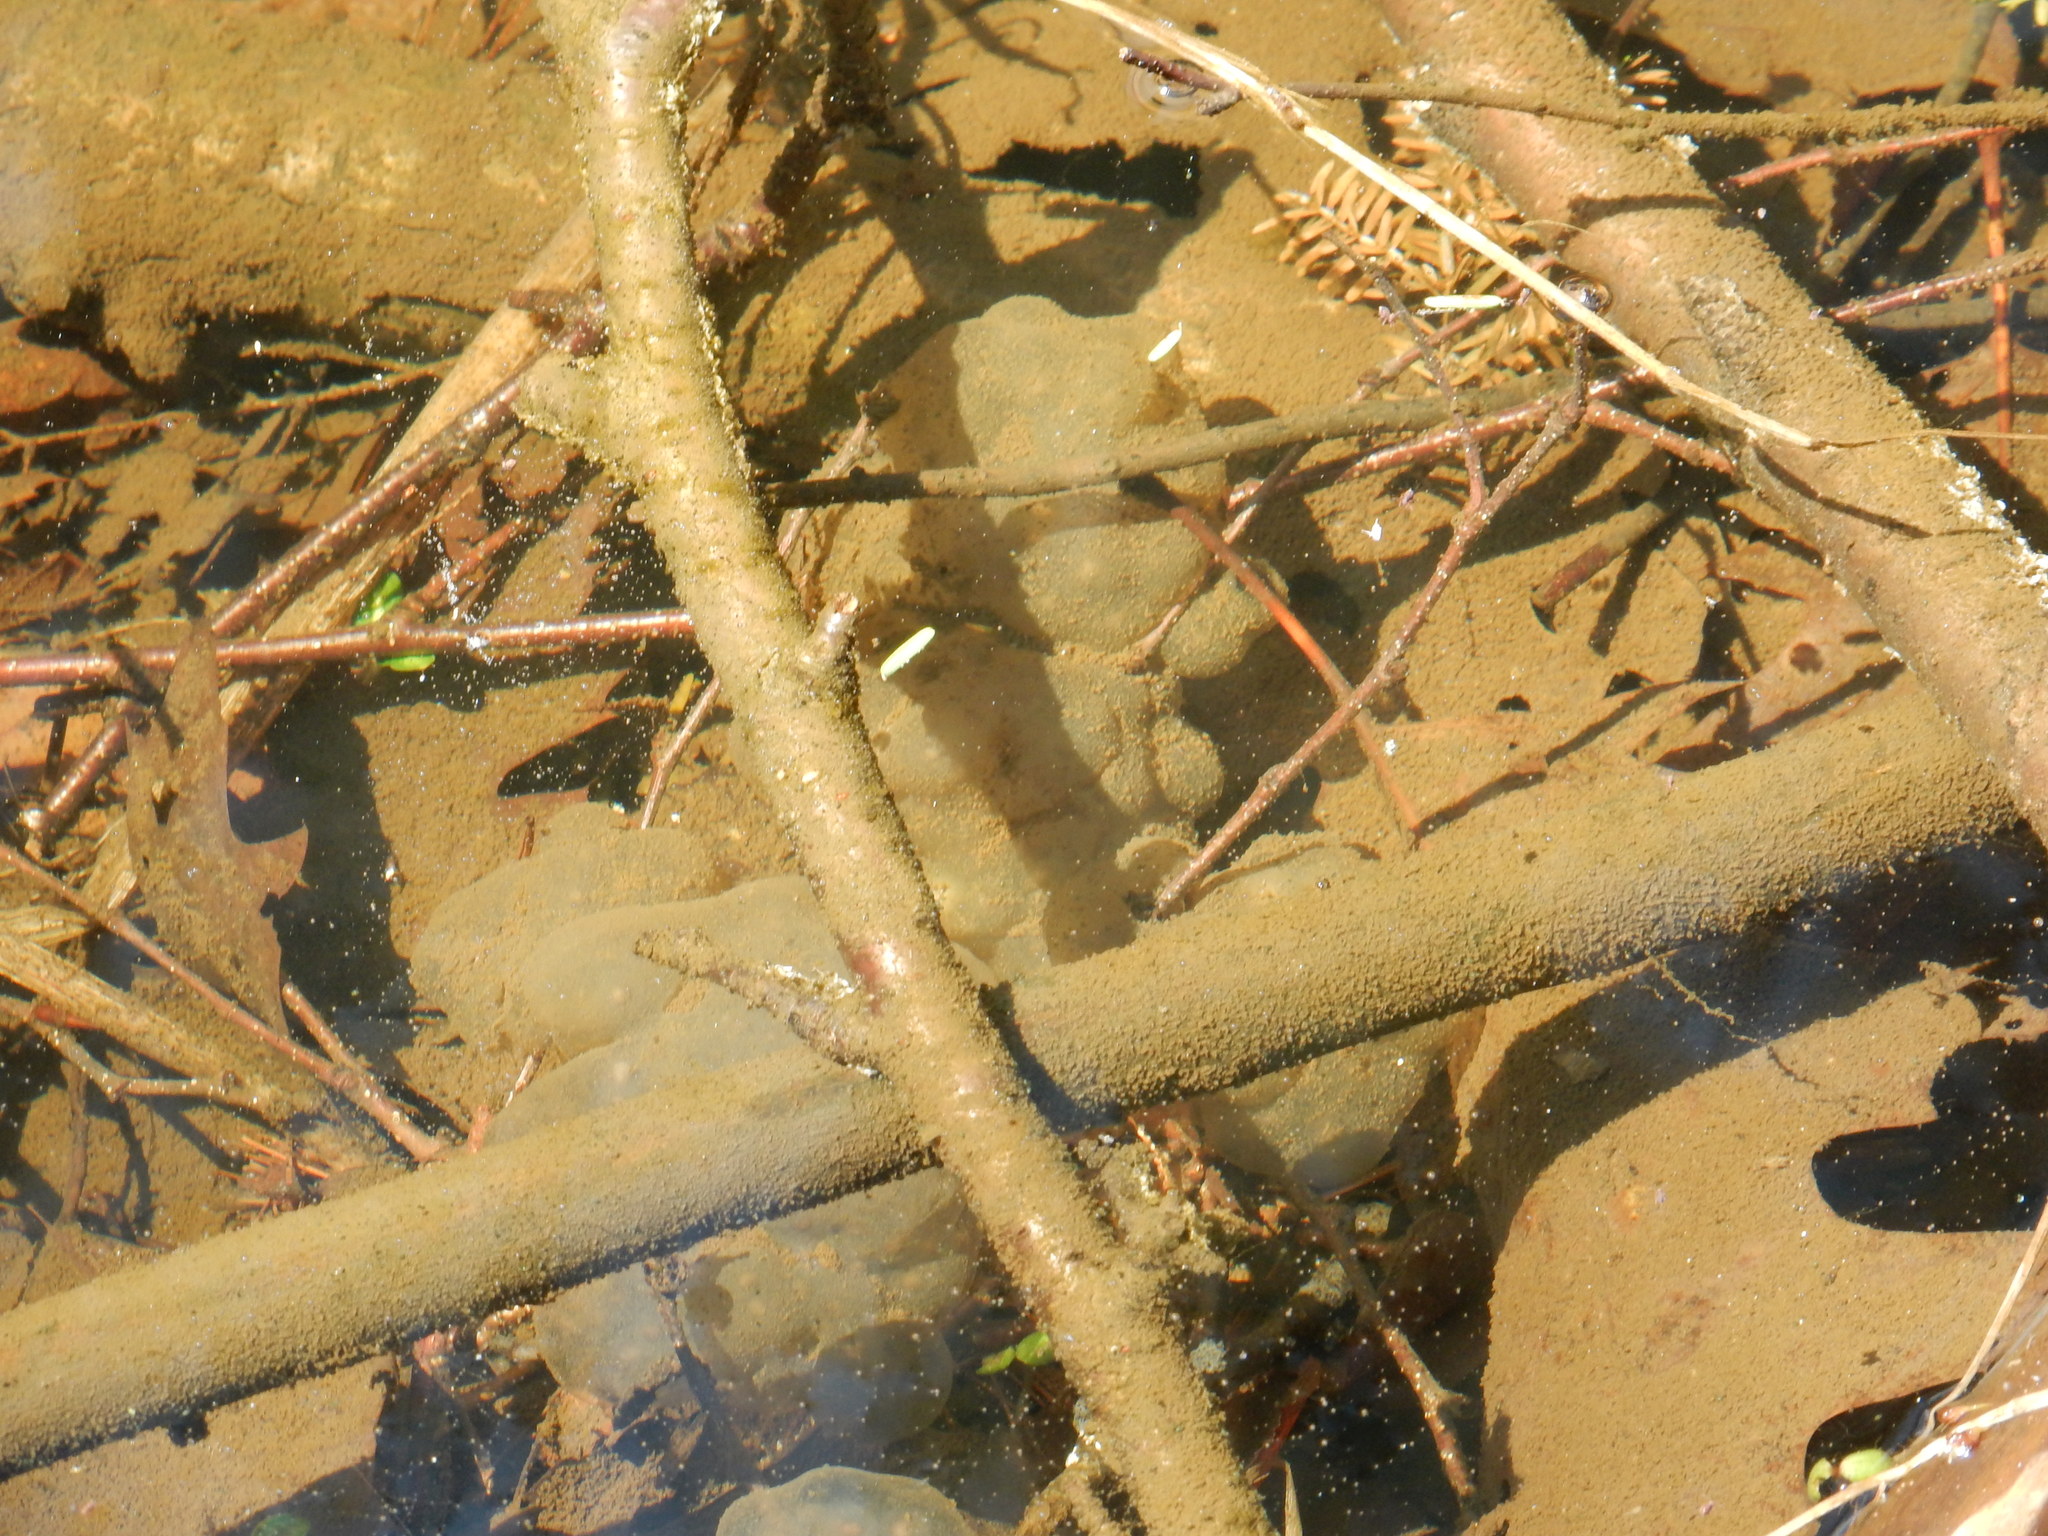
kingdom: Animalia
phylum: Chordata
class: Amphibia
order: Caudata
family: Ambystomatidae
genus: Ambystoma
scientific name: Ambystoma maculatum
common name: Spotted salamander
